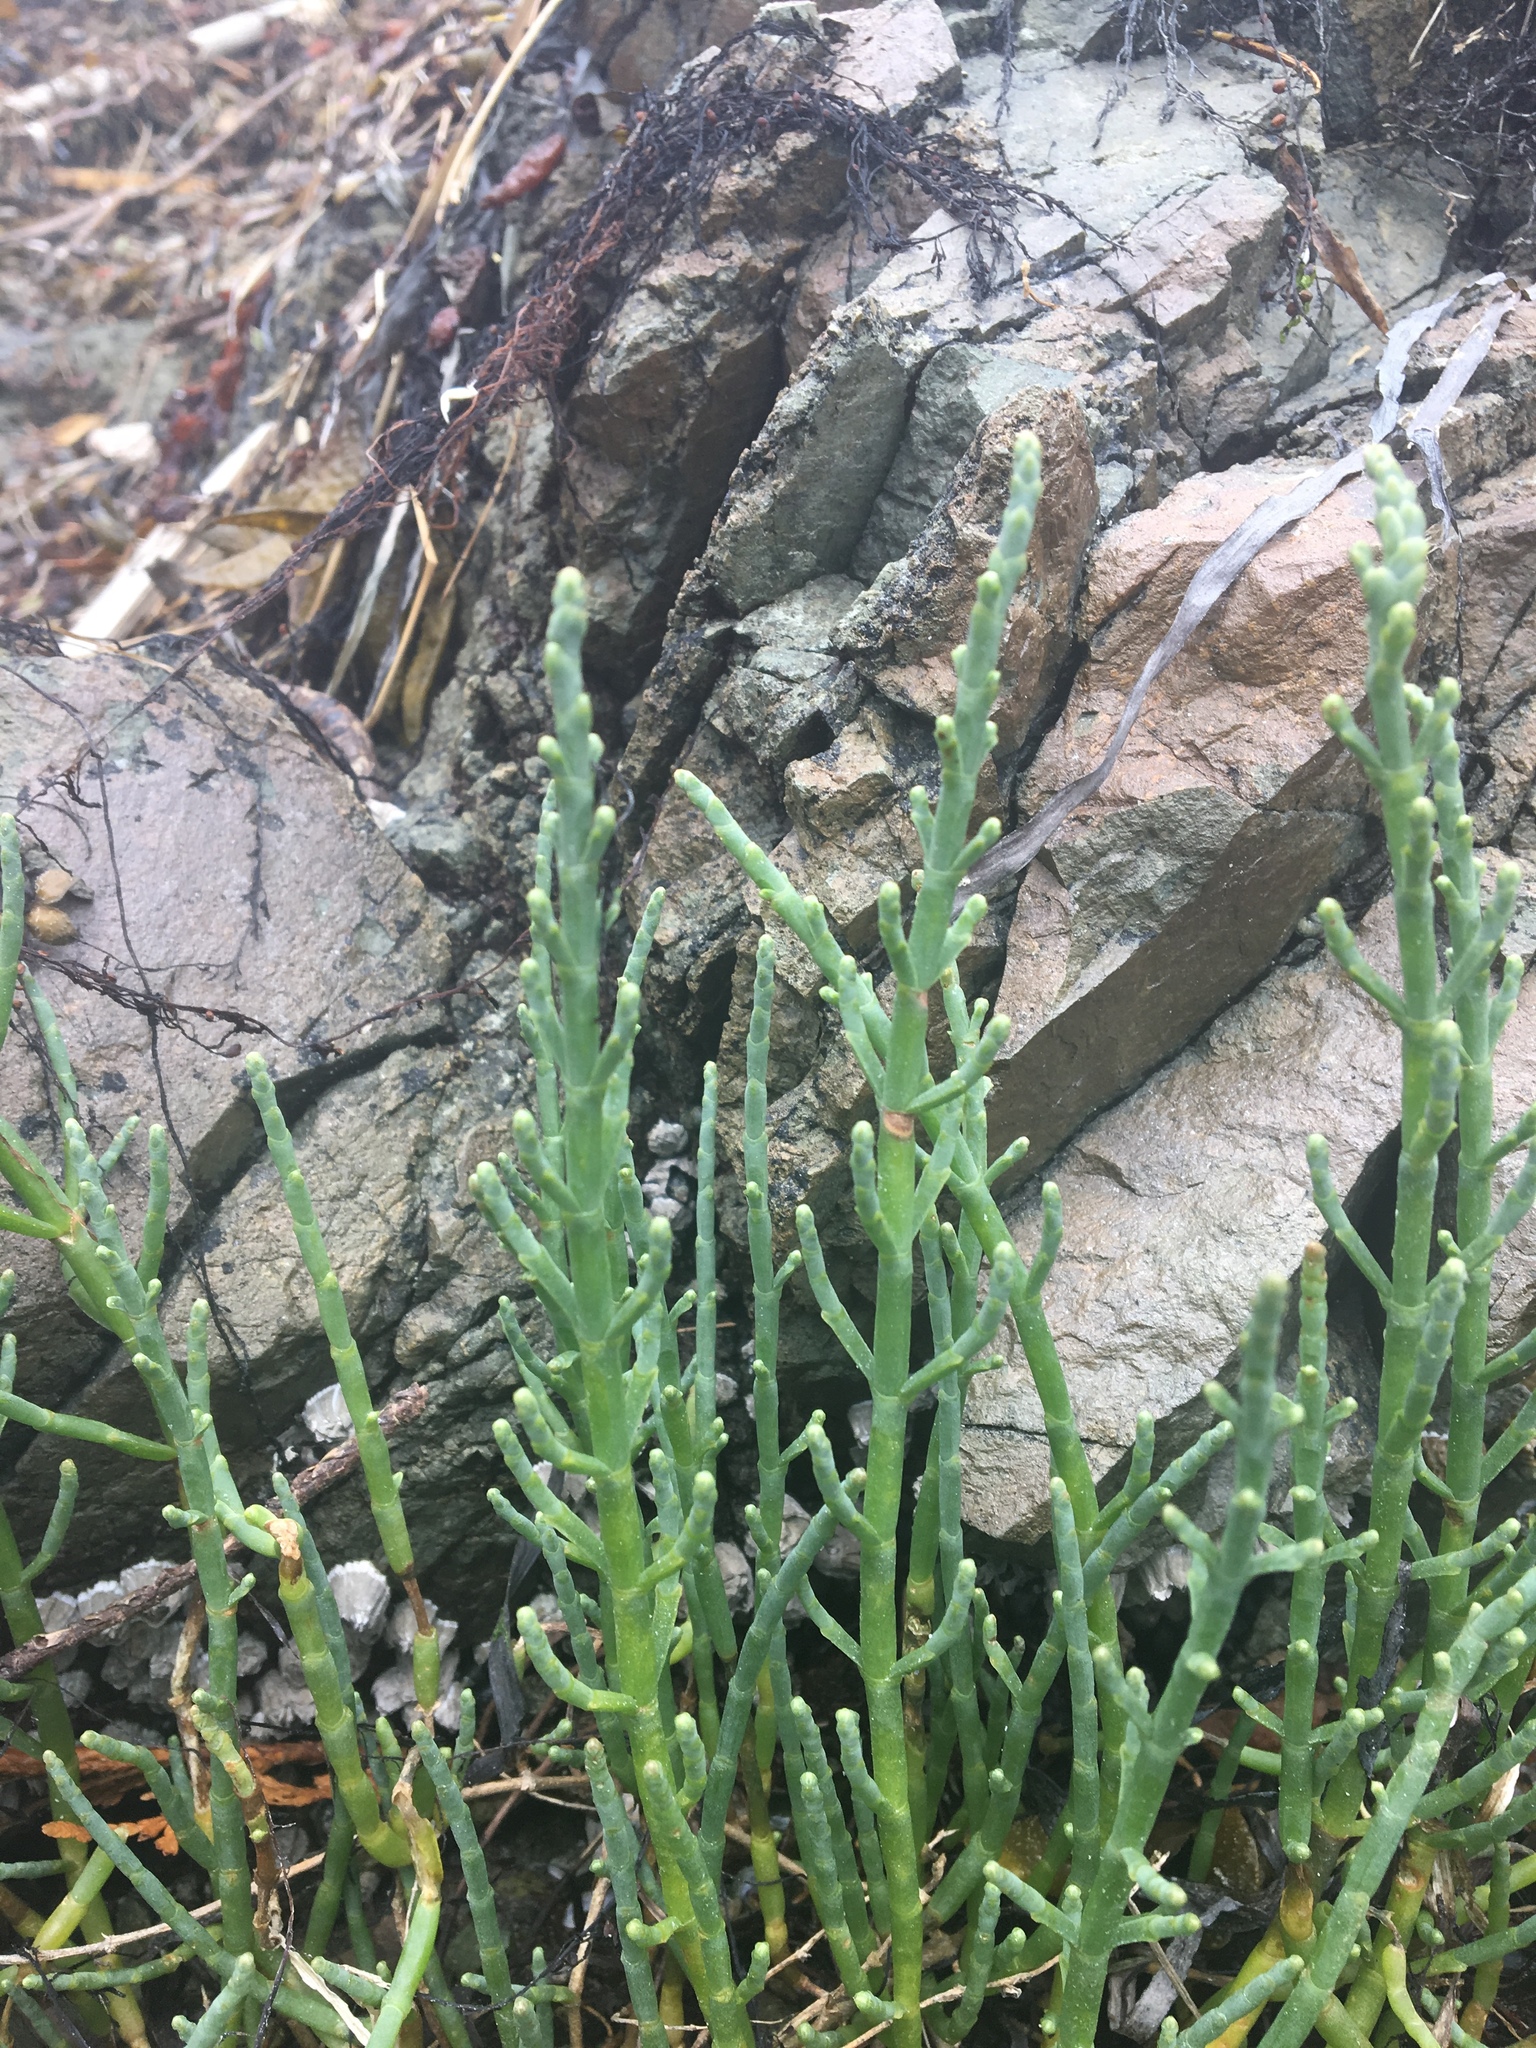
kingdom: Plantae
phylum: Tracheophyta
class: Magnoliopsida
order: Caryophyllales
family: Amaranthaceae
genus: Salicornia
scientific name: Salicornia pacifica
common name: Pacific glasswort
